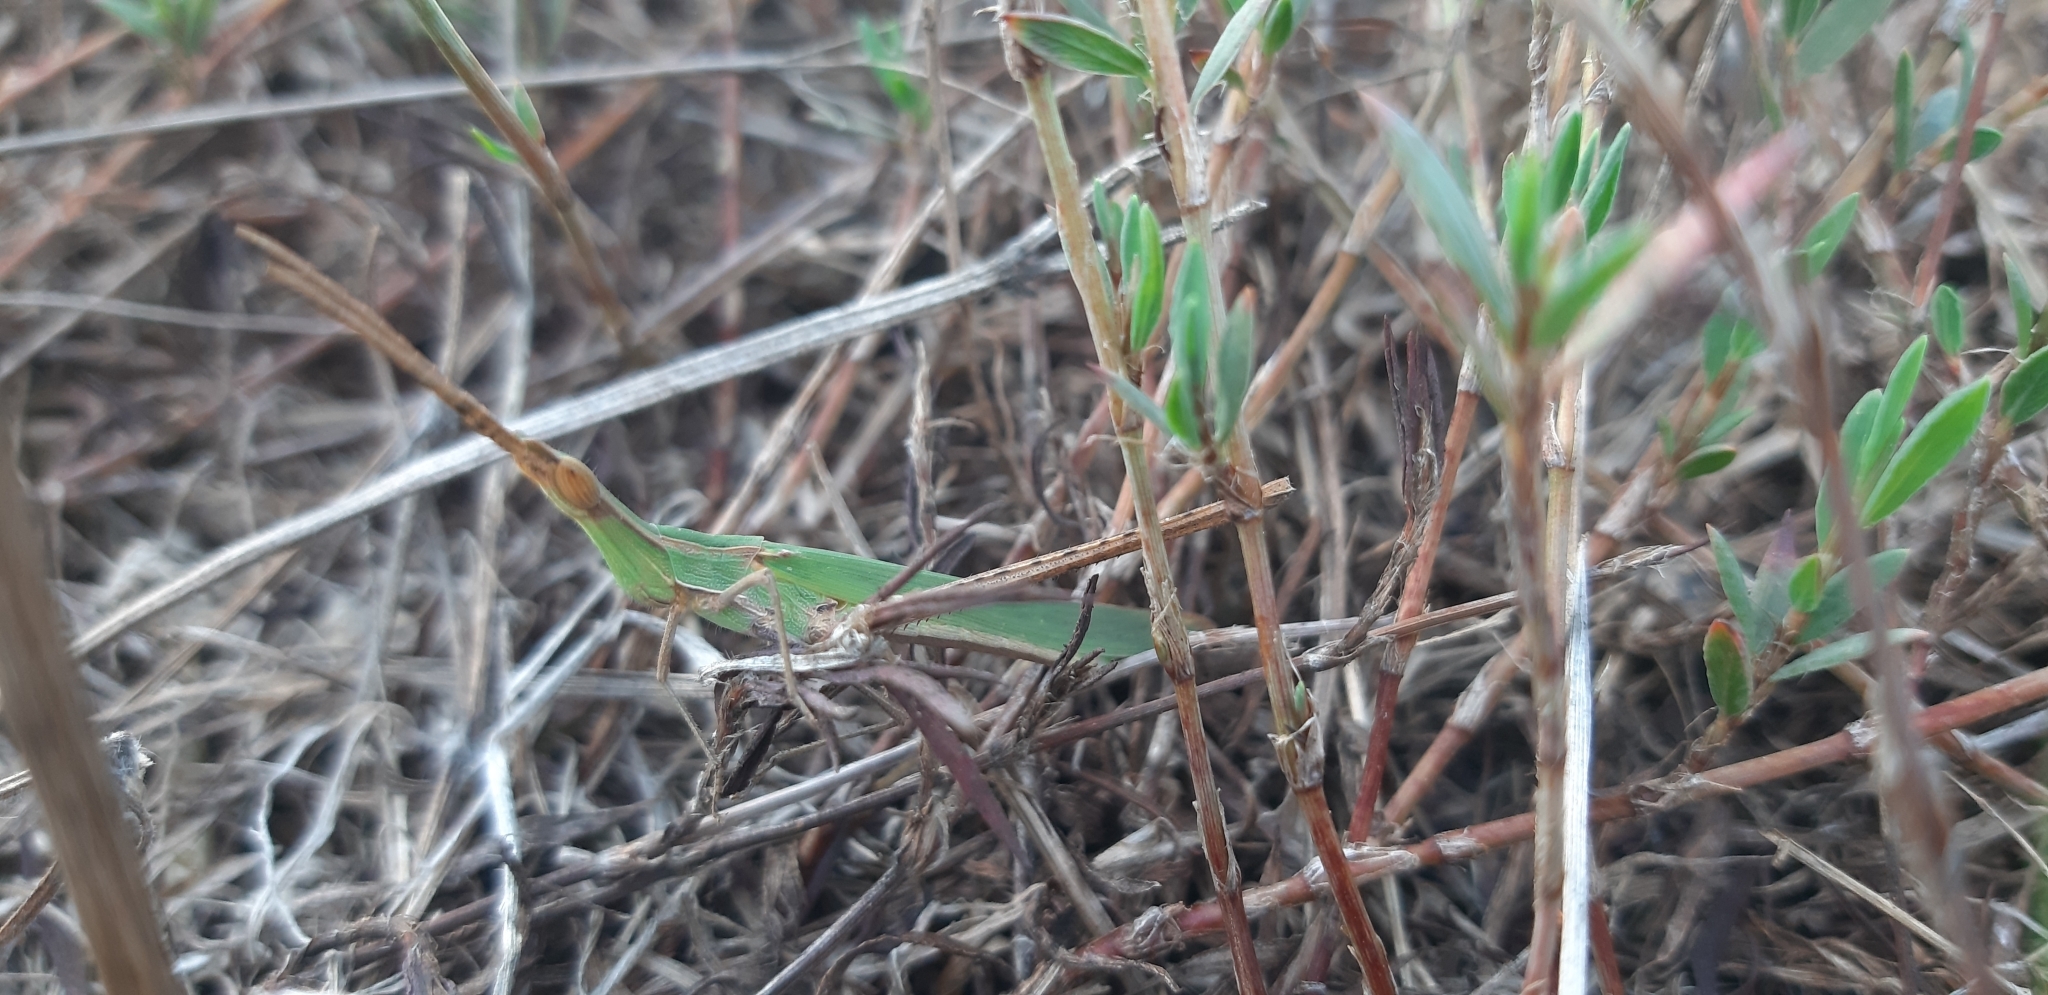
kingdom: Animalia
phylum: Arthropoda
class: Insecta
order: Orthoptera
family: Acrididae
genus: Acrida
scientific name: Acrida ungarica
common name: Common cone-headed grasshopper
